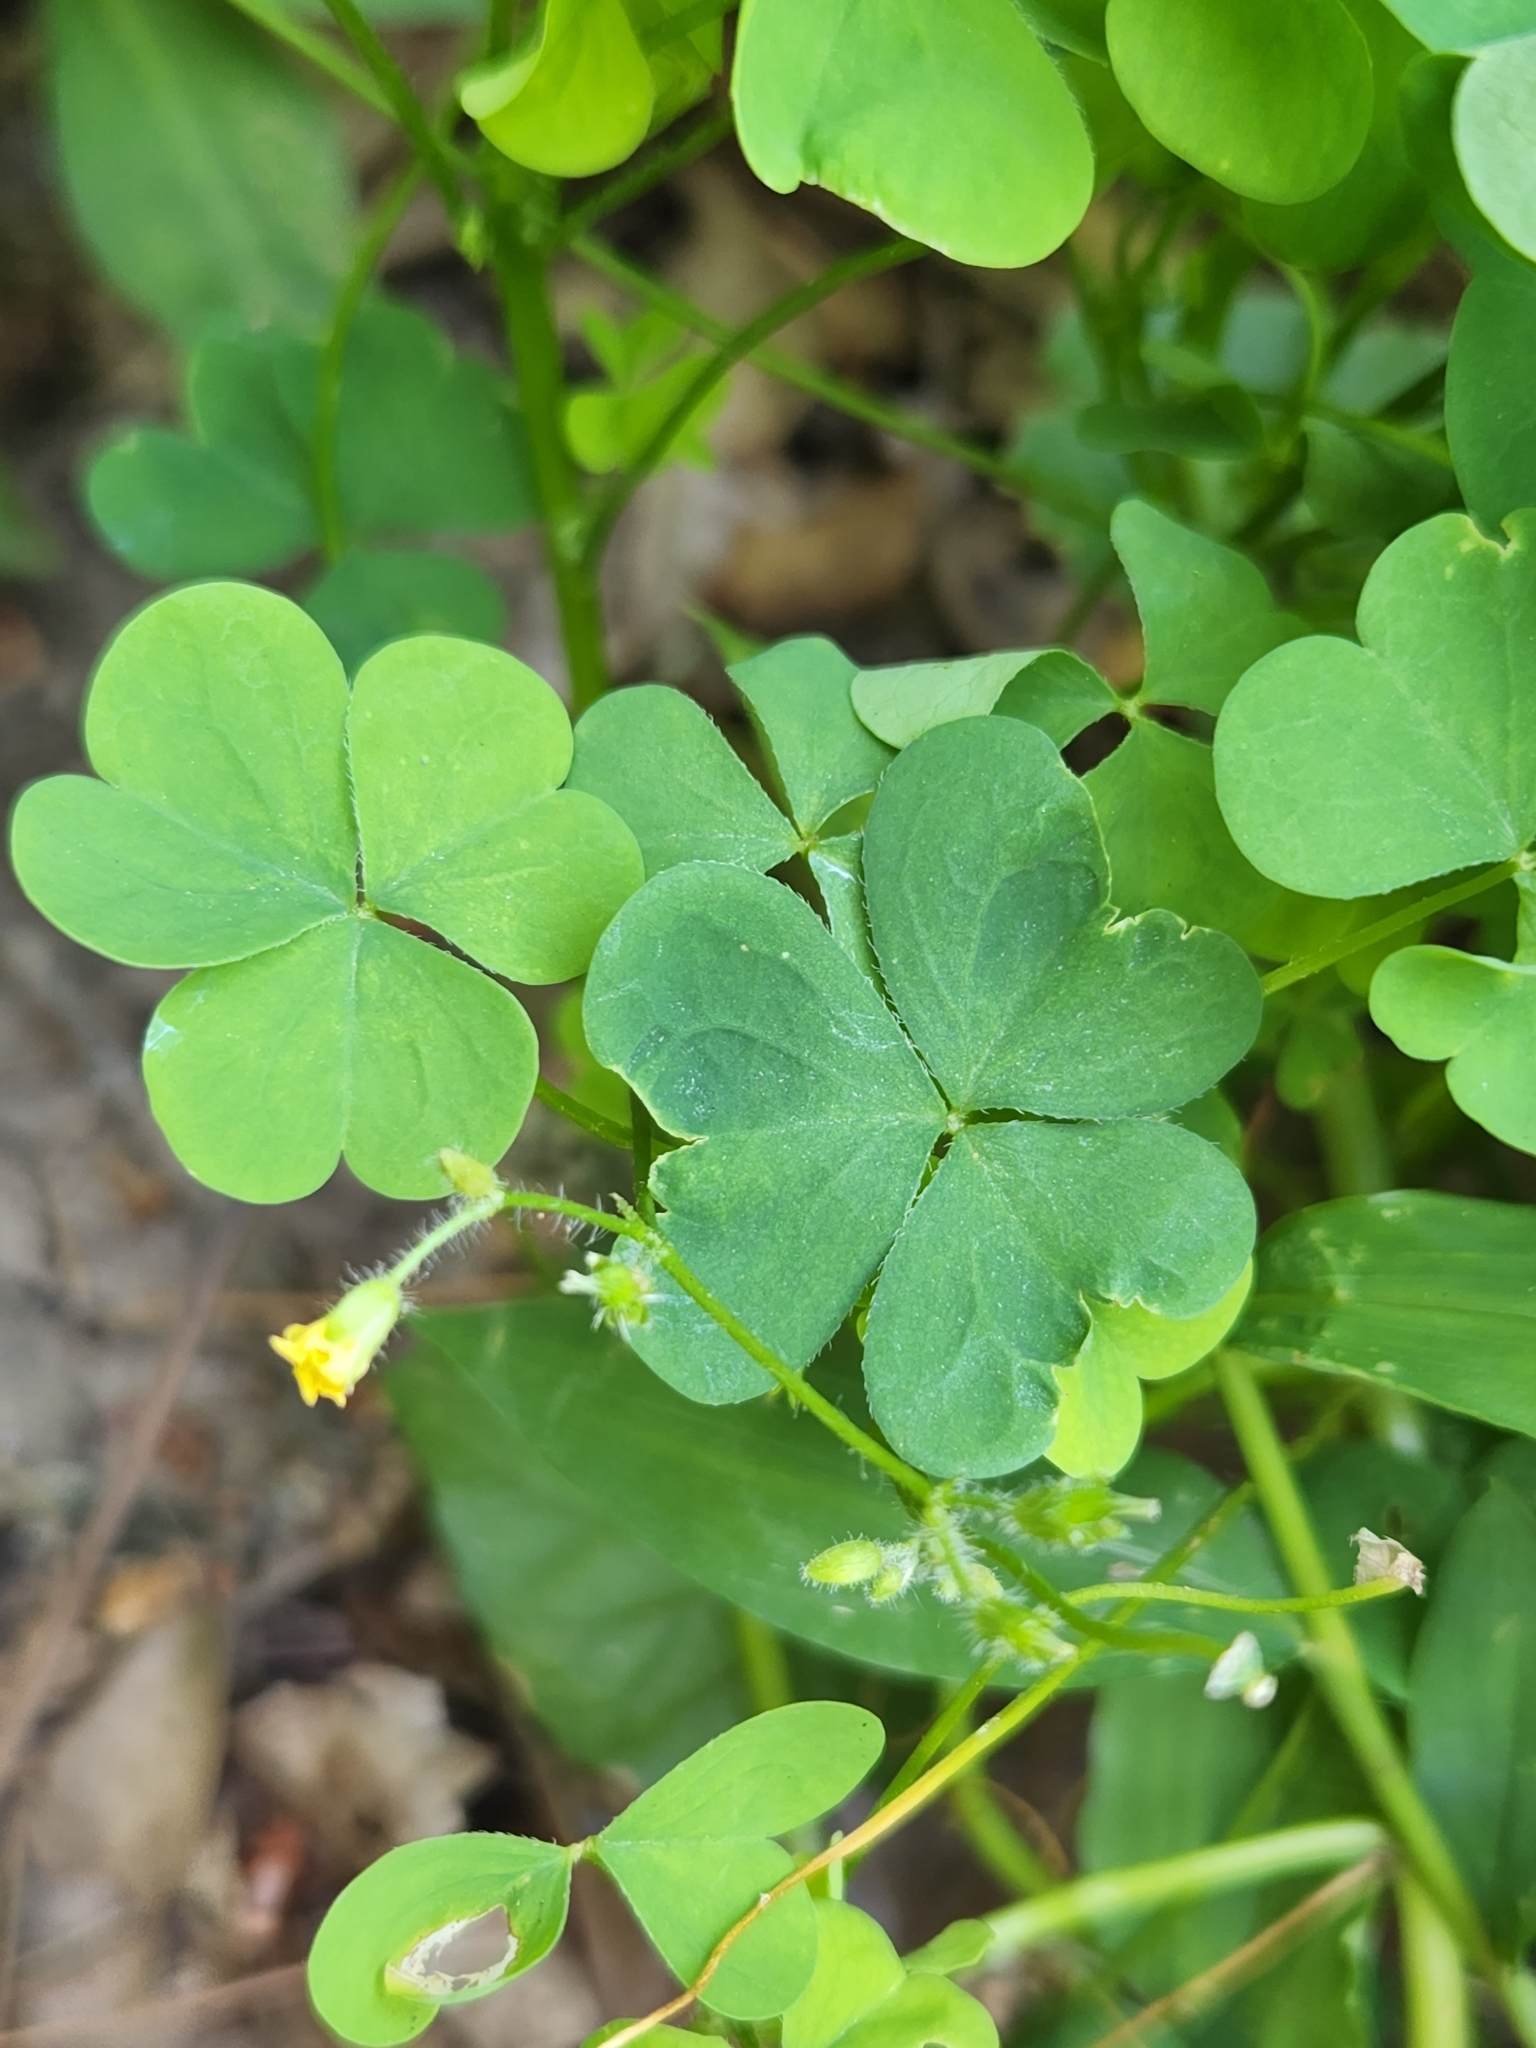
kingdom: Plantae
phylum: Tracheophyta
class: Magnoliopsida
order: Oxalidales
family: Oxalidaceae
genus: Oxalis
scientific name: Oxalis dillenii
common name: Sussex yellow-sorrel
